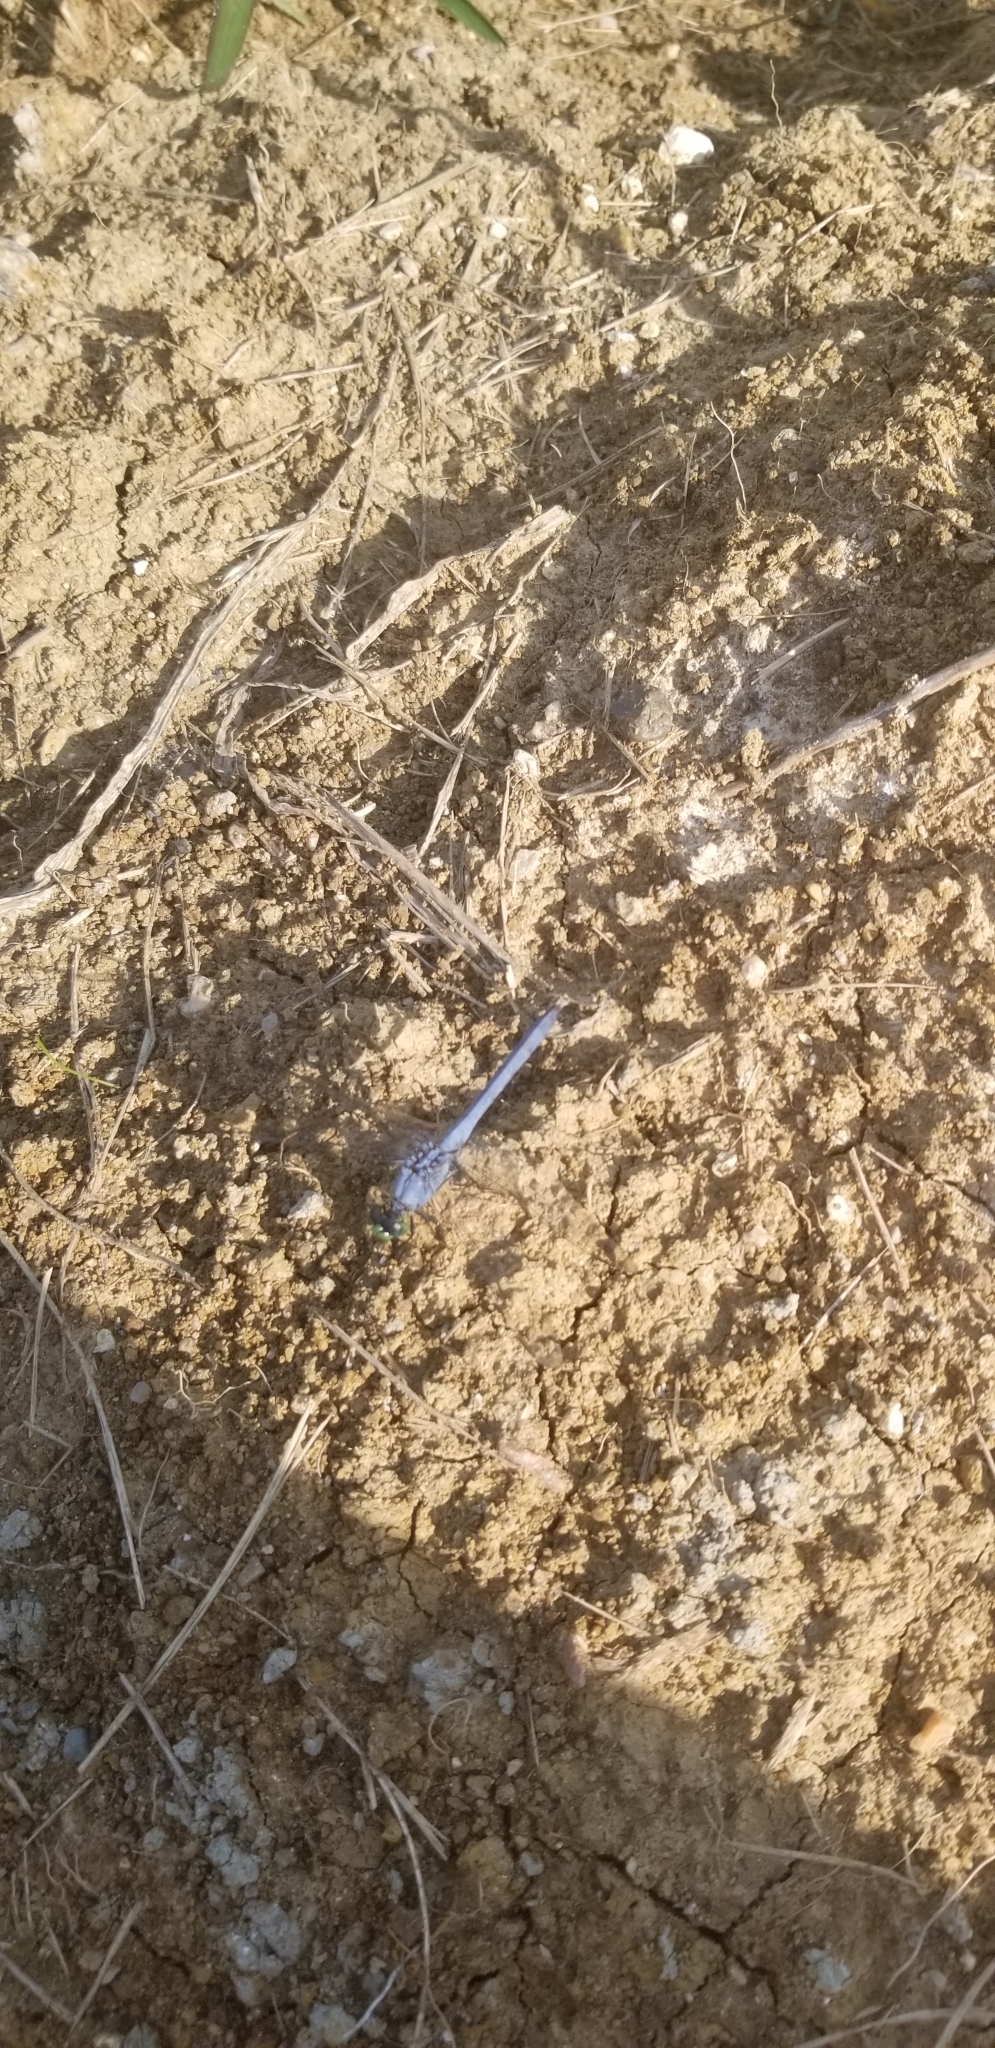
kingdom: Animalia
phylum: Arthropoda
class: Insecta
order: Odonata
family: Libellulidae
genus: Erythemis
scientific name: Erythemis simplicicollis
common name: Eastern pondhawk
